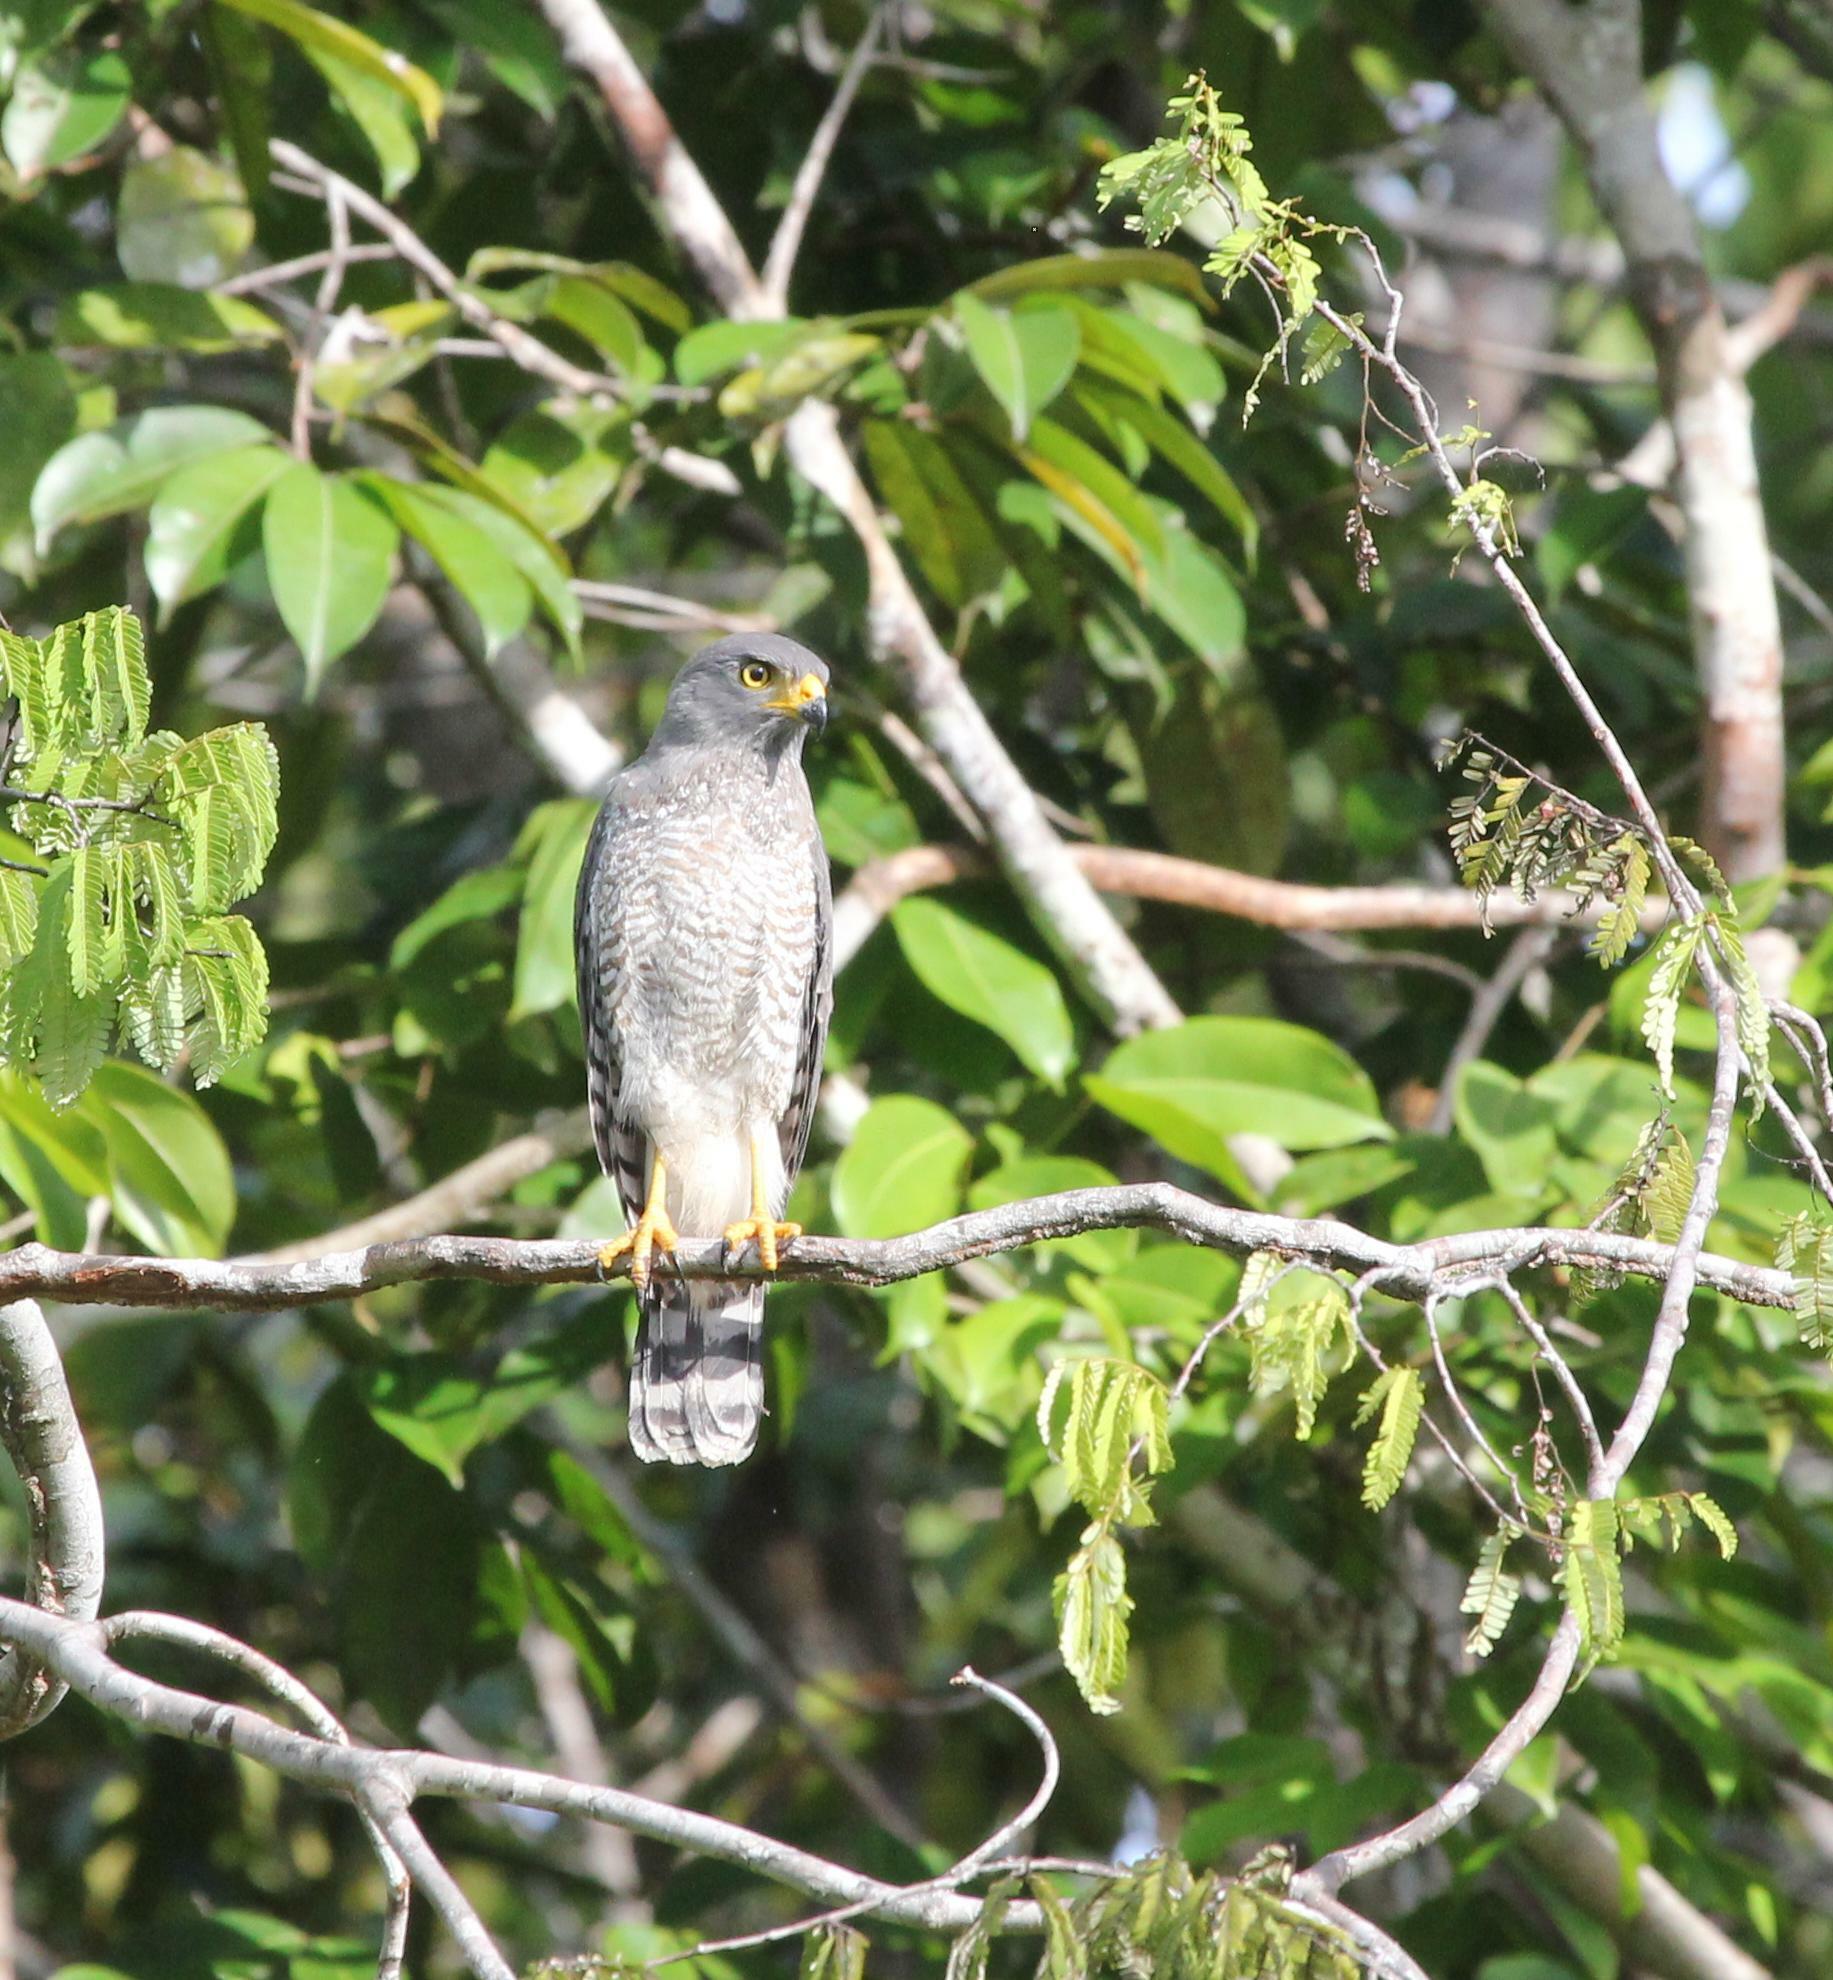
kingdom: Animalia
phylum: Chordata
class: Aves
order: Accipitriformes
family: Accipitridae
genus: Rupornis
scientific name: Rupornis magnirostris
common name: Roadside hawk
